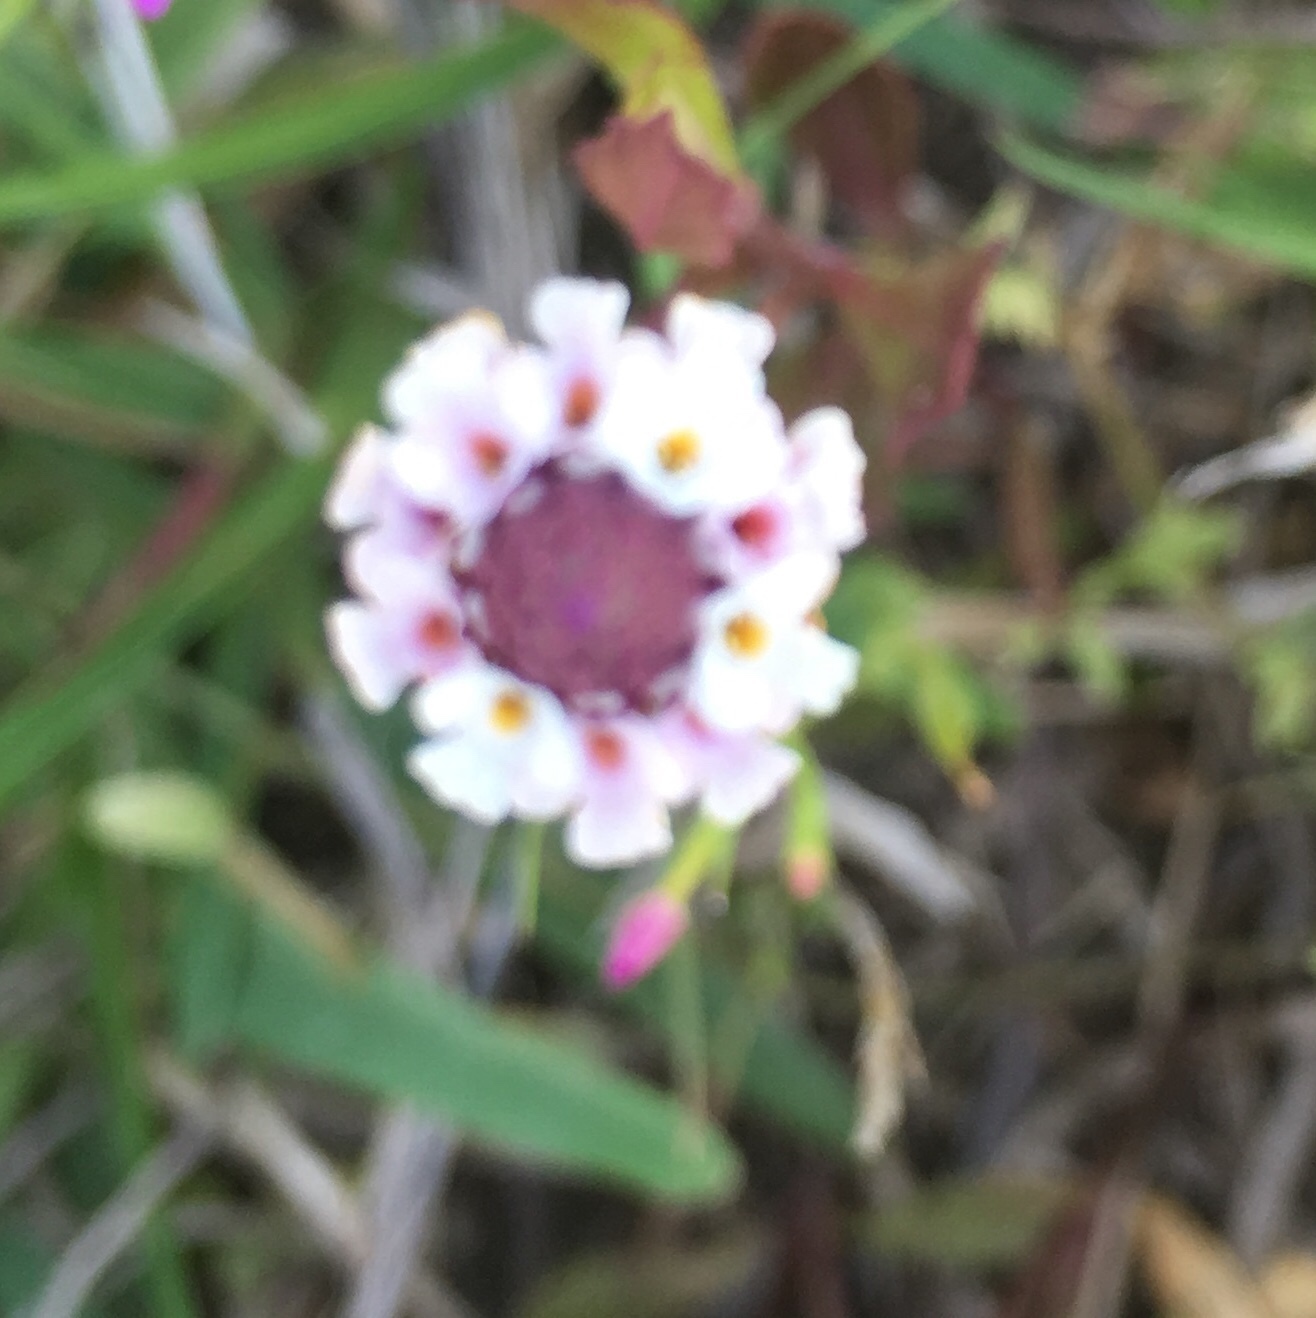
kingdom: Plantae
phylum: Tracheophyta
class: Magnoliopsida
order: Lamiales
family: Verbenaceae
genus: Phyla
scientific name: Phyla nodiflora
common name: Frogfruit
